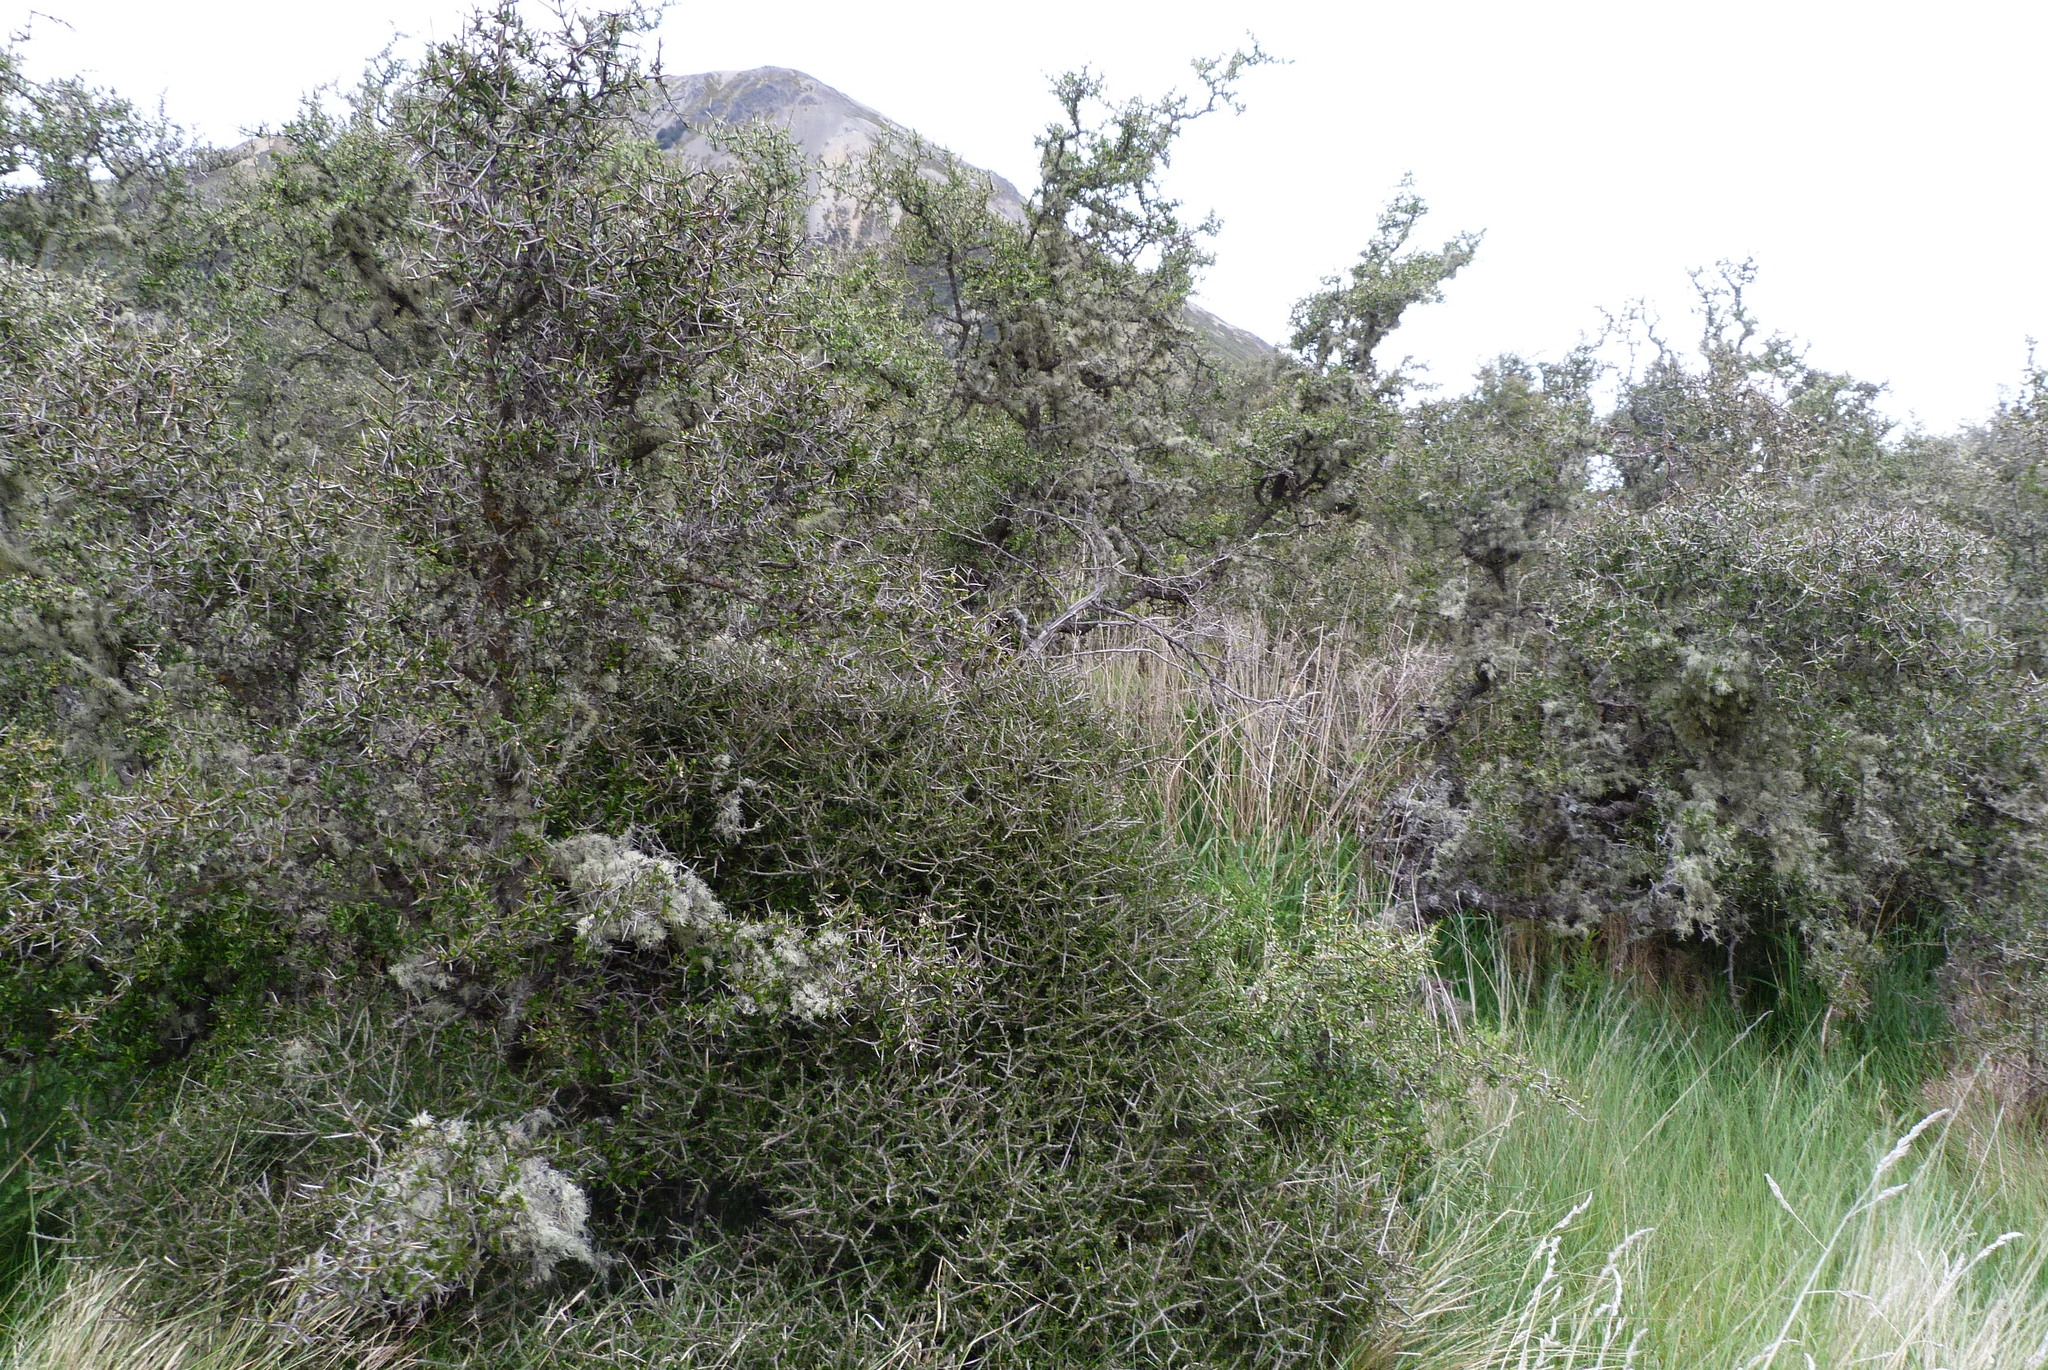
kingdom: Plantae
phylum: Tracheophyta
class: Magnoliopsida
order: Malpighiales
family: Violaceae
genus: Melicytus
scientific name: Melicytus alpinus
